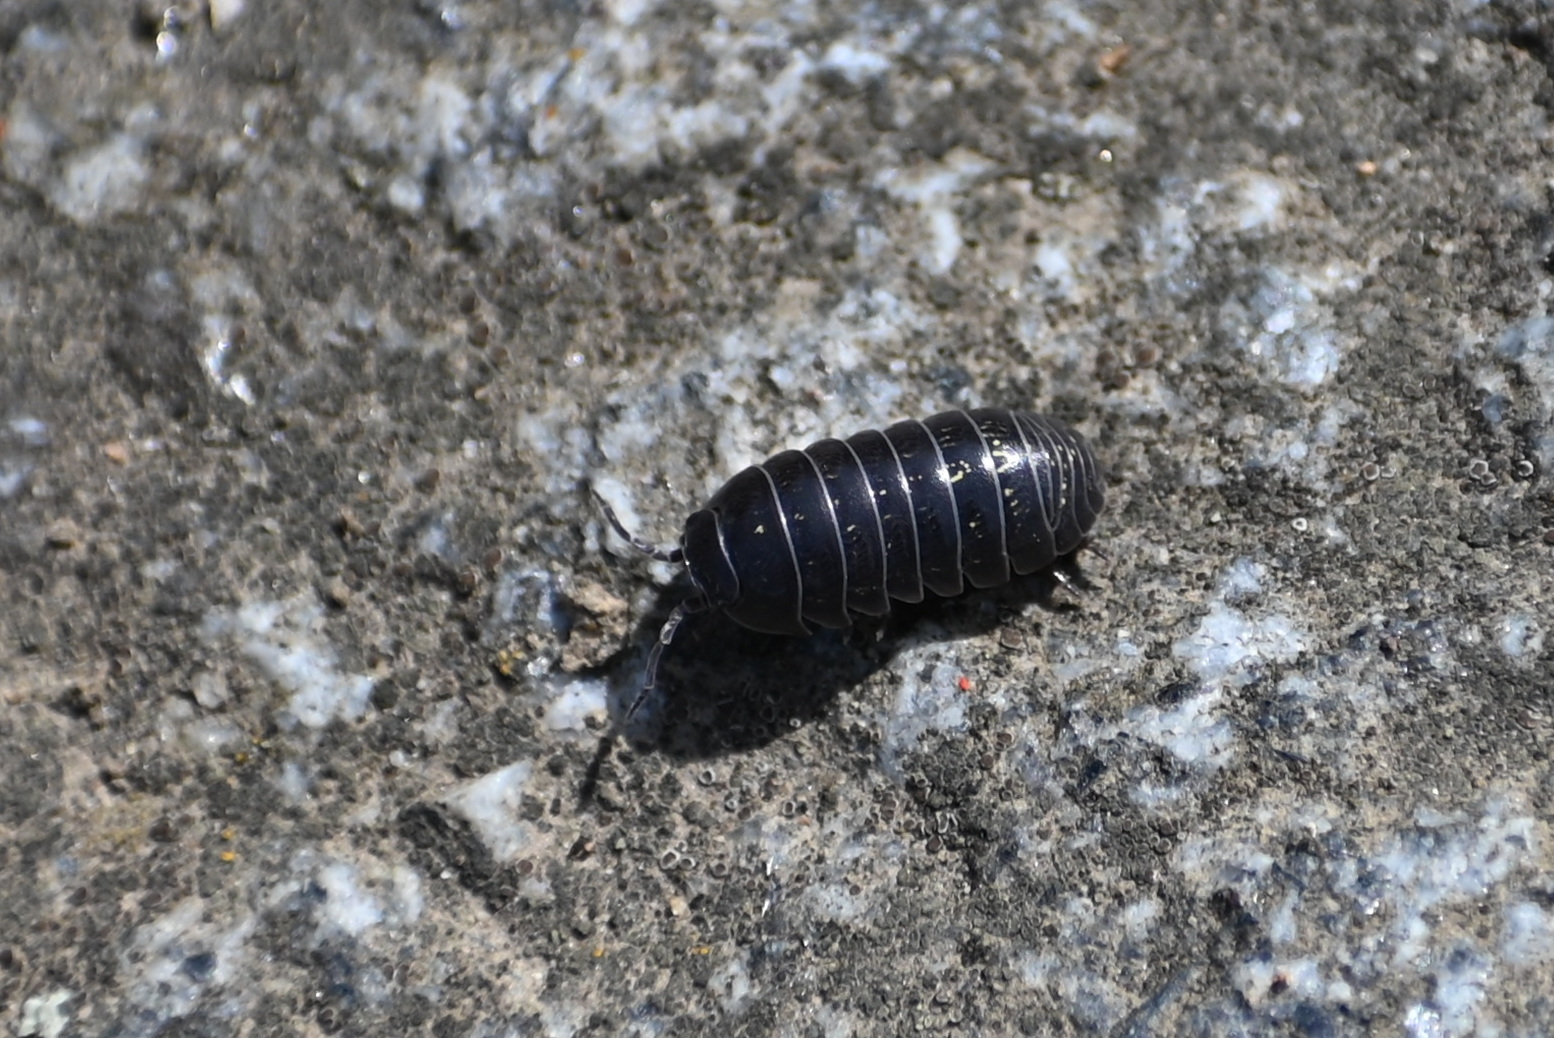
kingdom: Animalia
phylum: Arthropoda
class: Malacostraca
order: Isopoda
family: Armadillidiidae
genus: Armadillidium
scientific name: Armadillidium vulgare
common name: Common pill woodlouse
